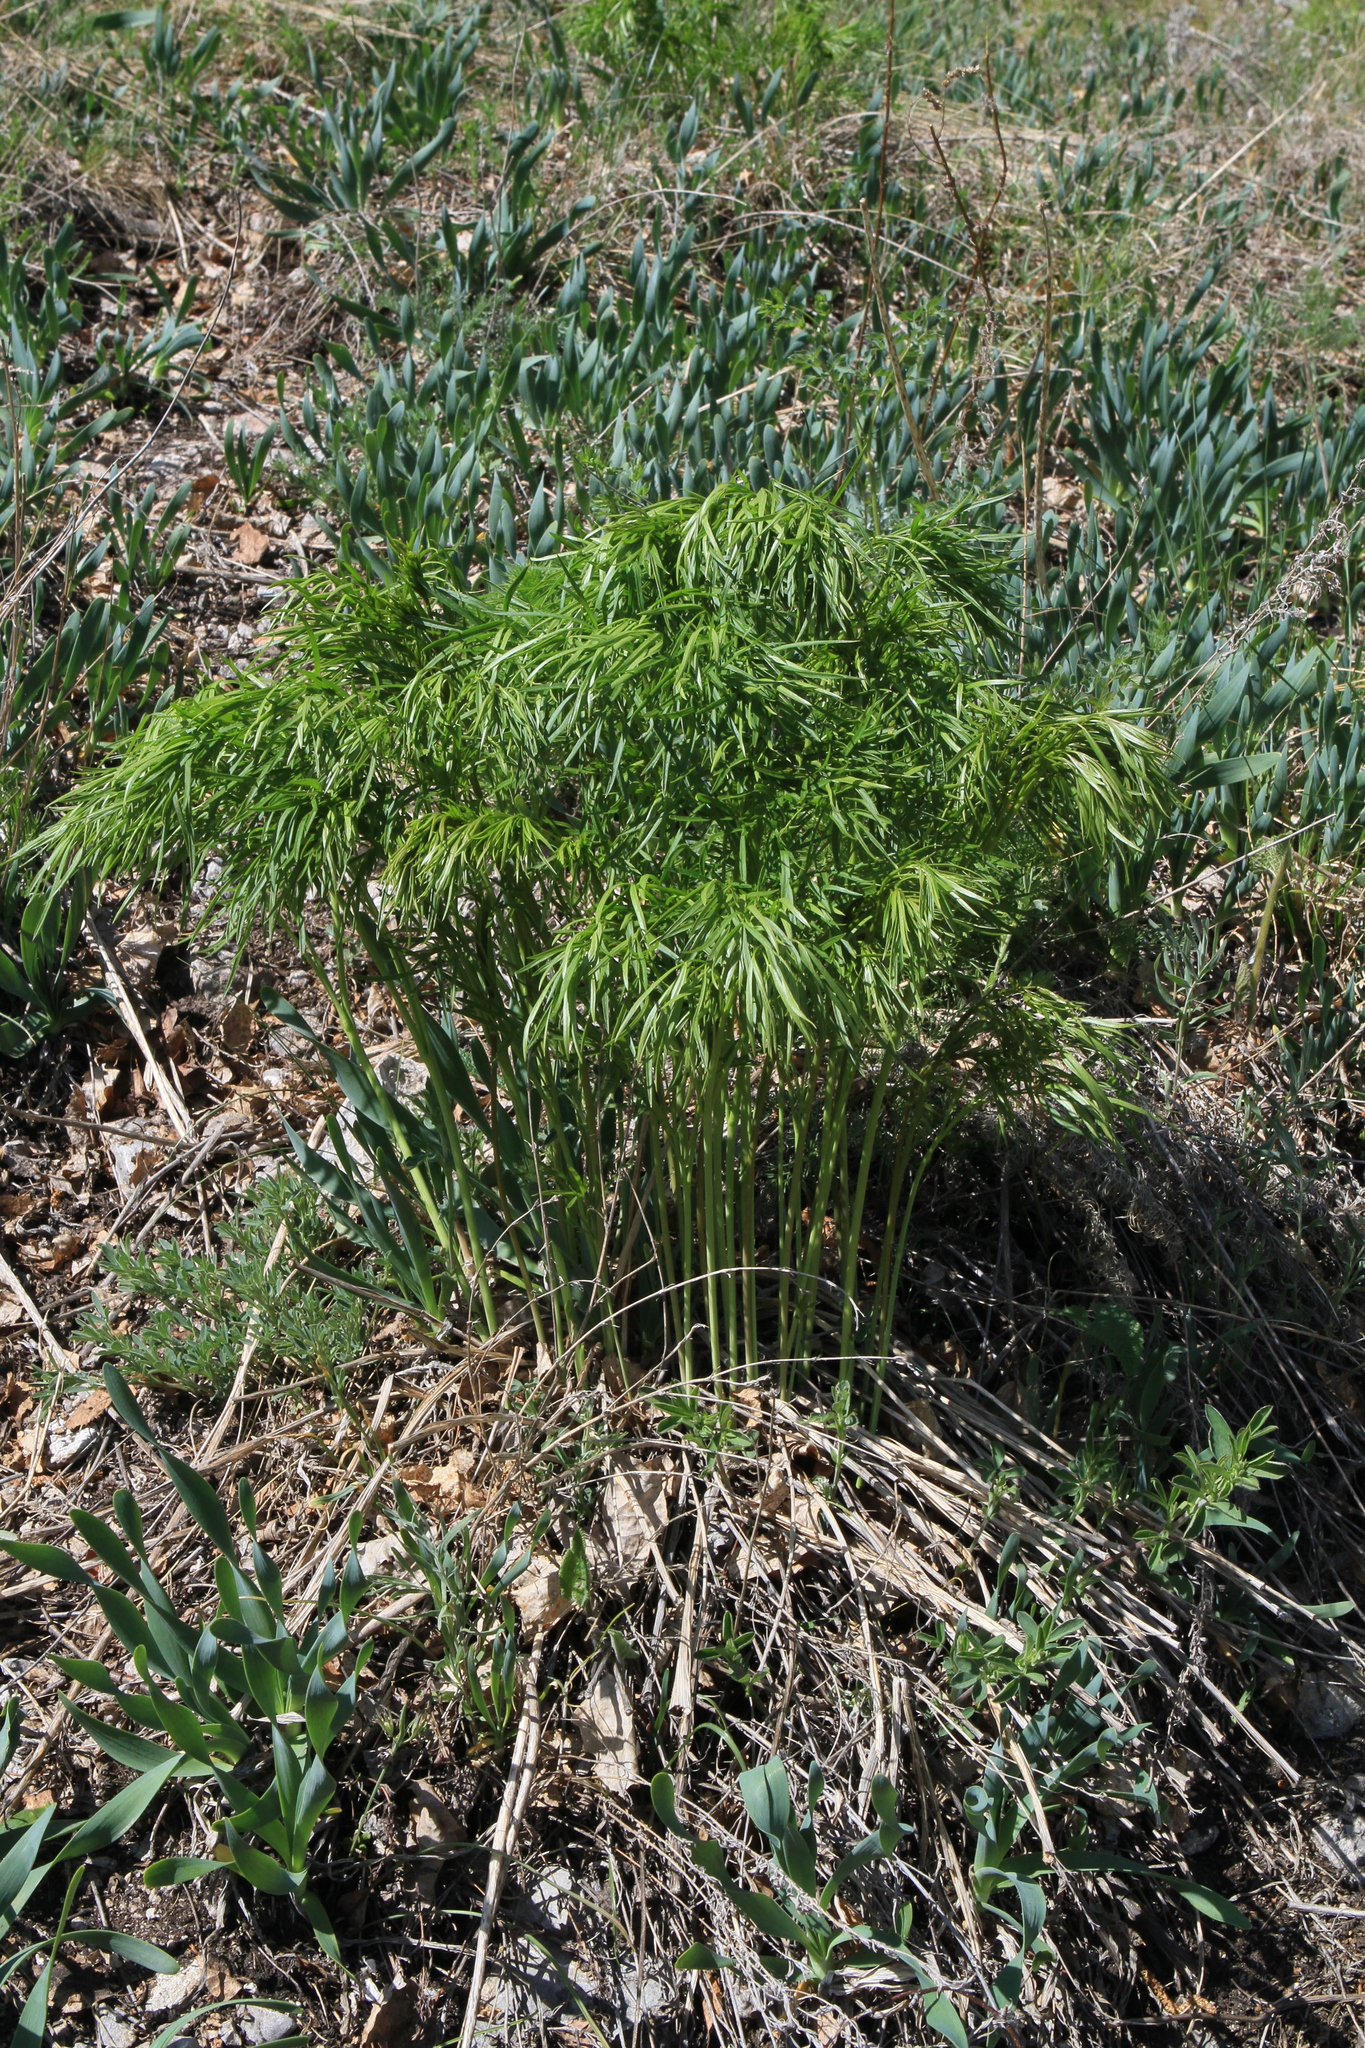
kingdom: Plantae
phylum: Tracheophyta
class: Magnoliopsida
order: Apiales
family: Apiaceae
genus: Peucedanum
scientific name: Peucedanum morisonii
